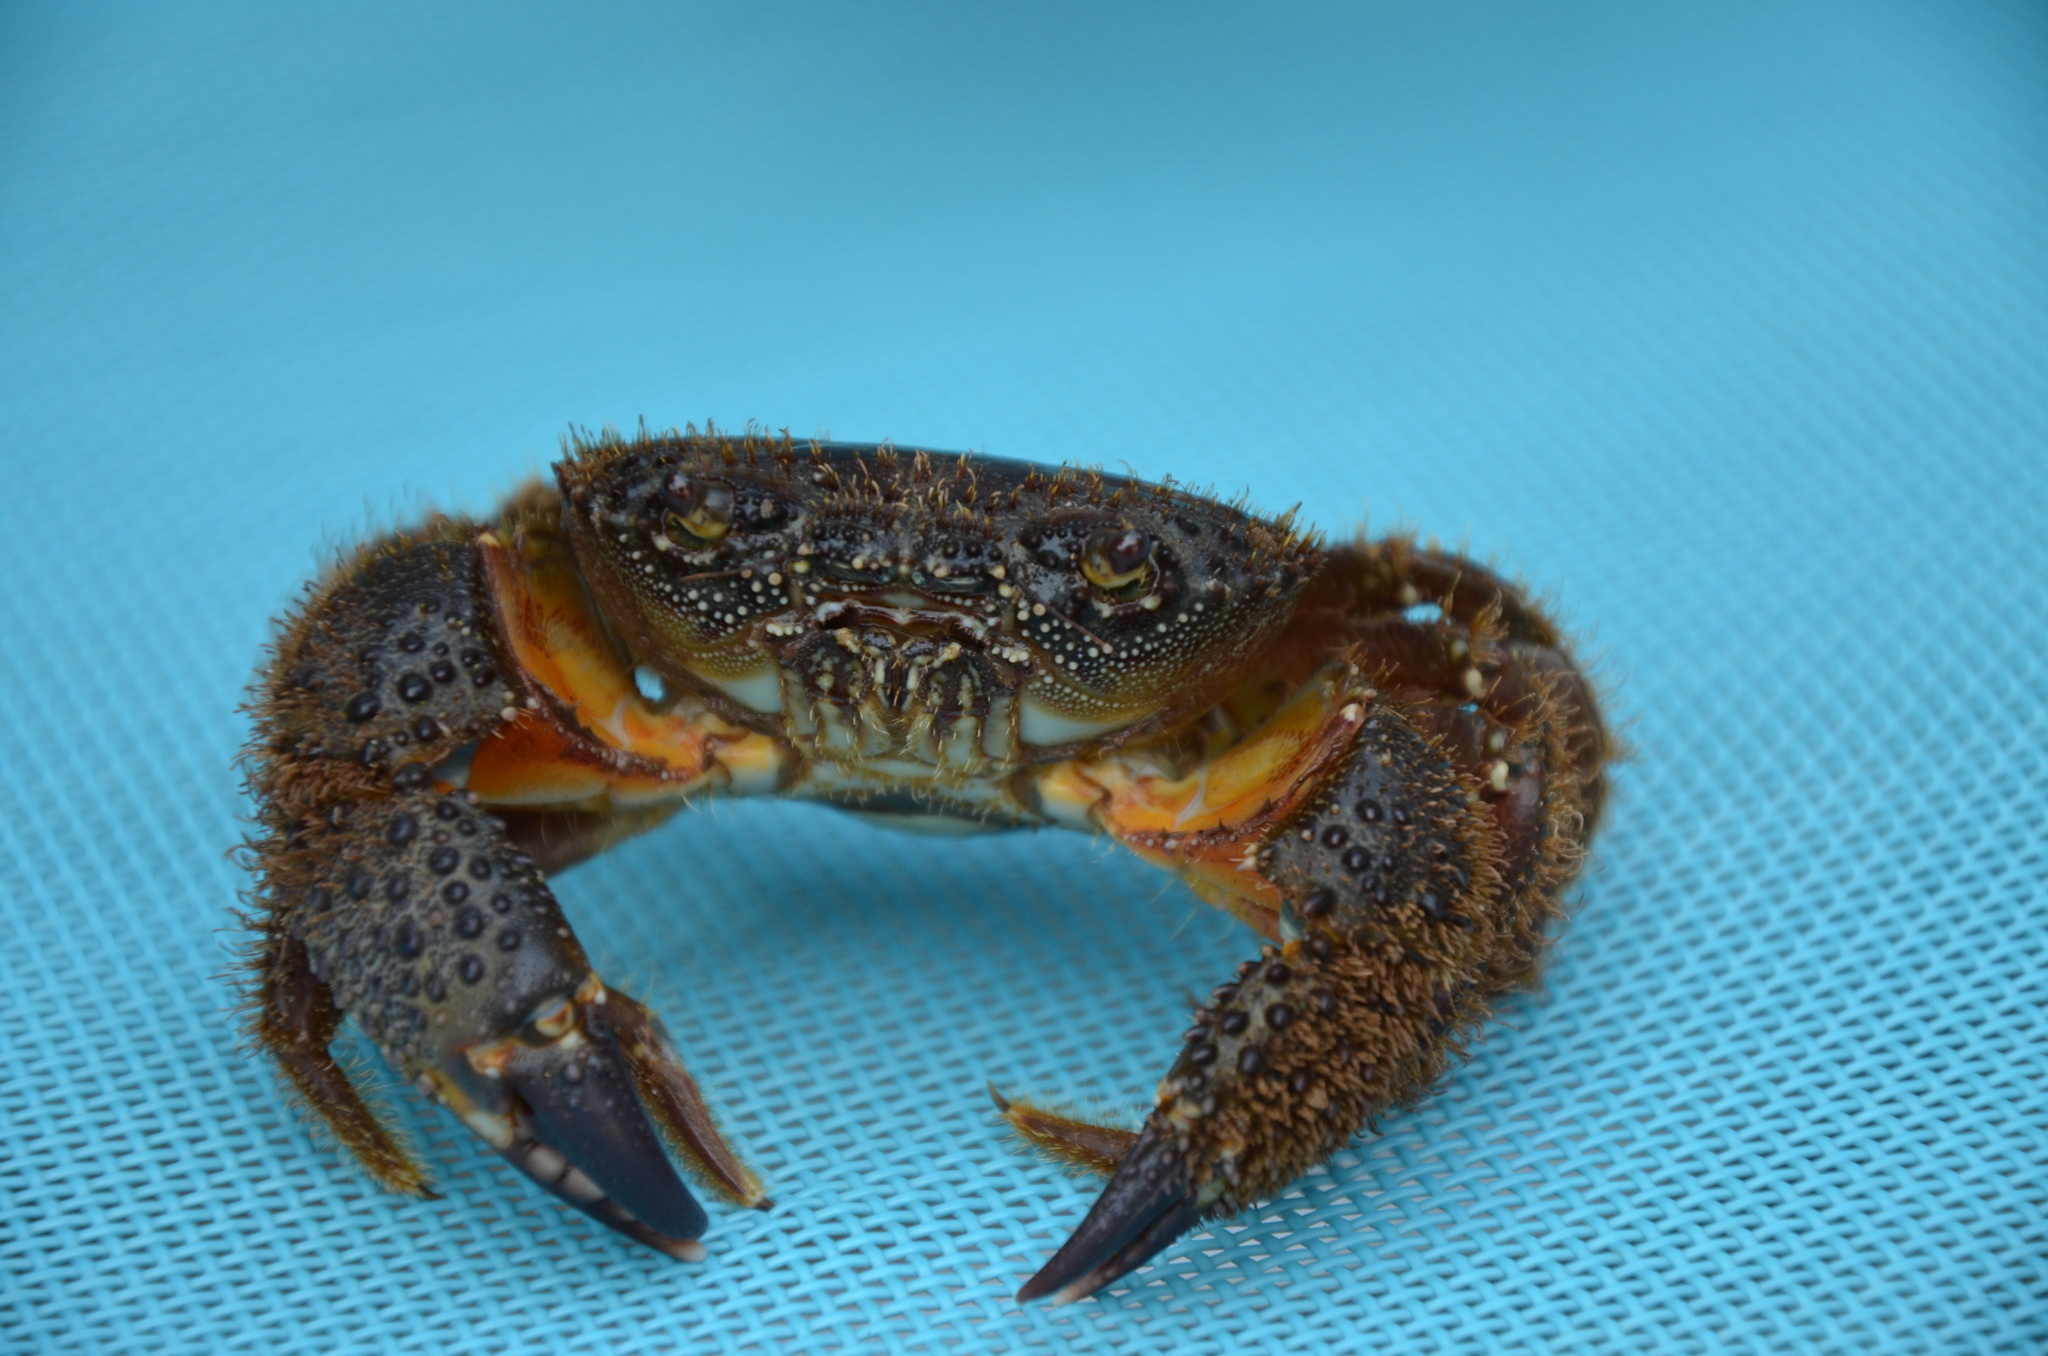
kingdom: Animalia
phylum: Arthropoda
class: Malacostraca
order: Decapoda
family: Eriphiidae
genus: Eriphia
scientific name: Eriphia verrucosa
